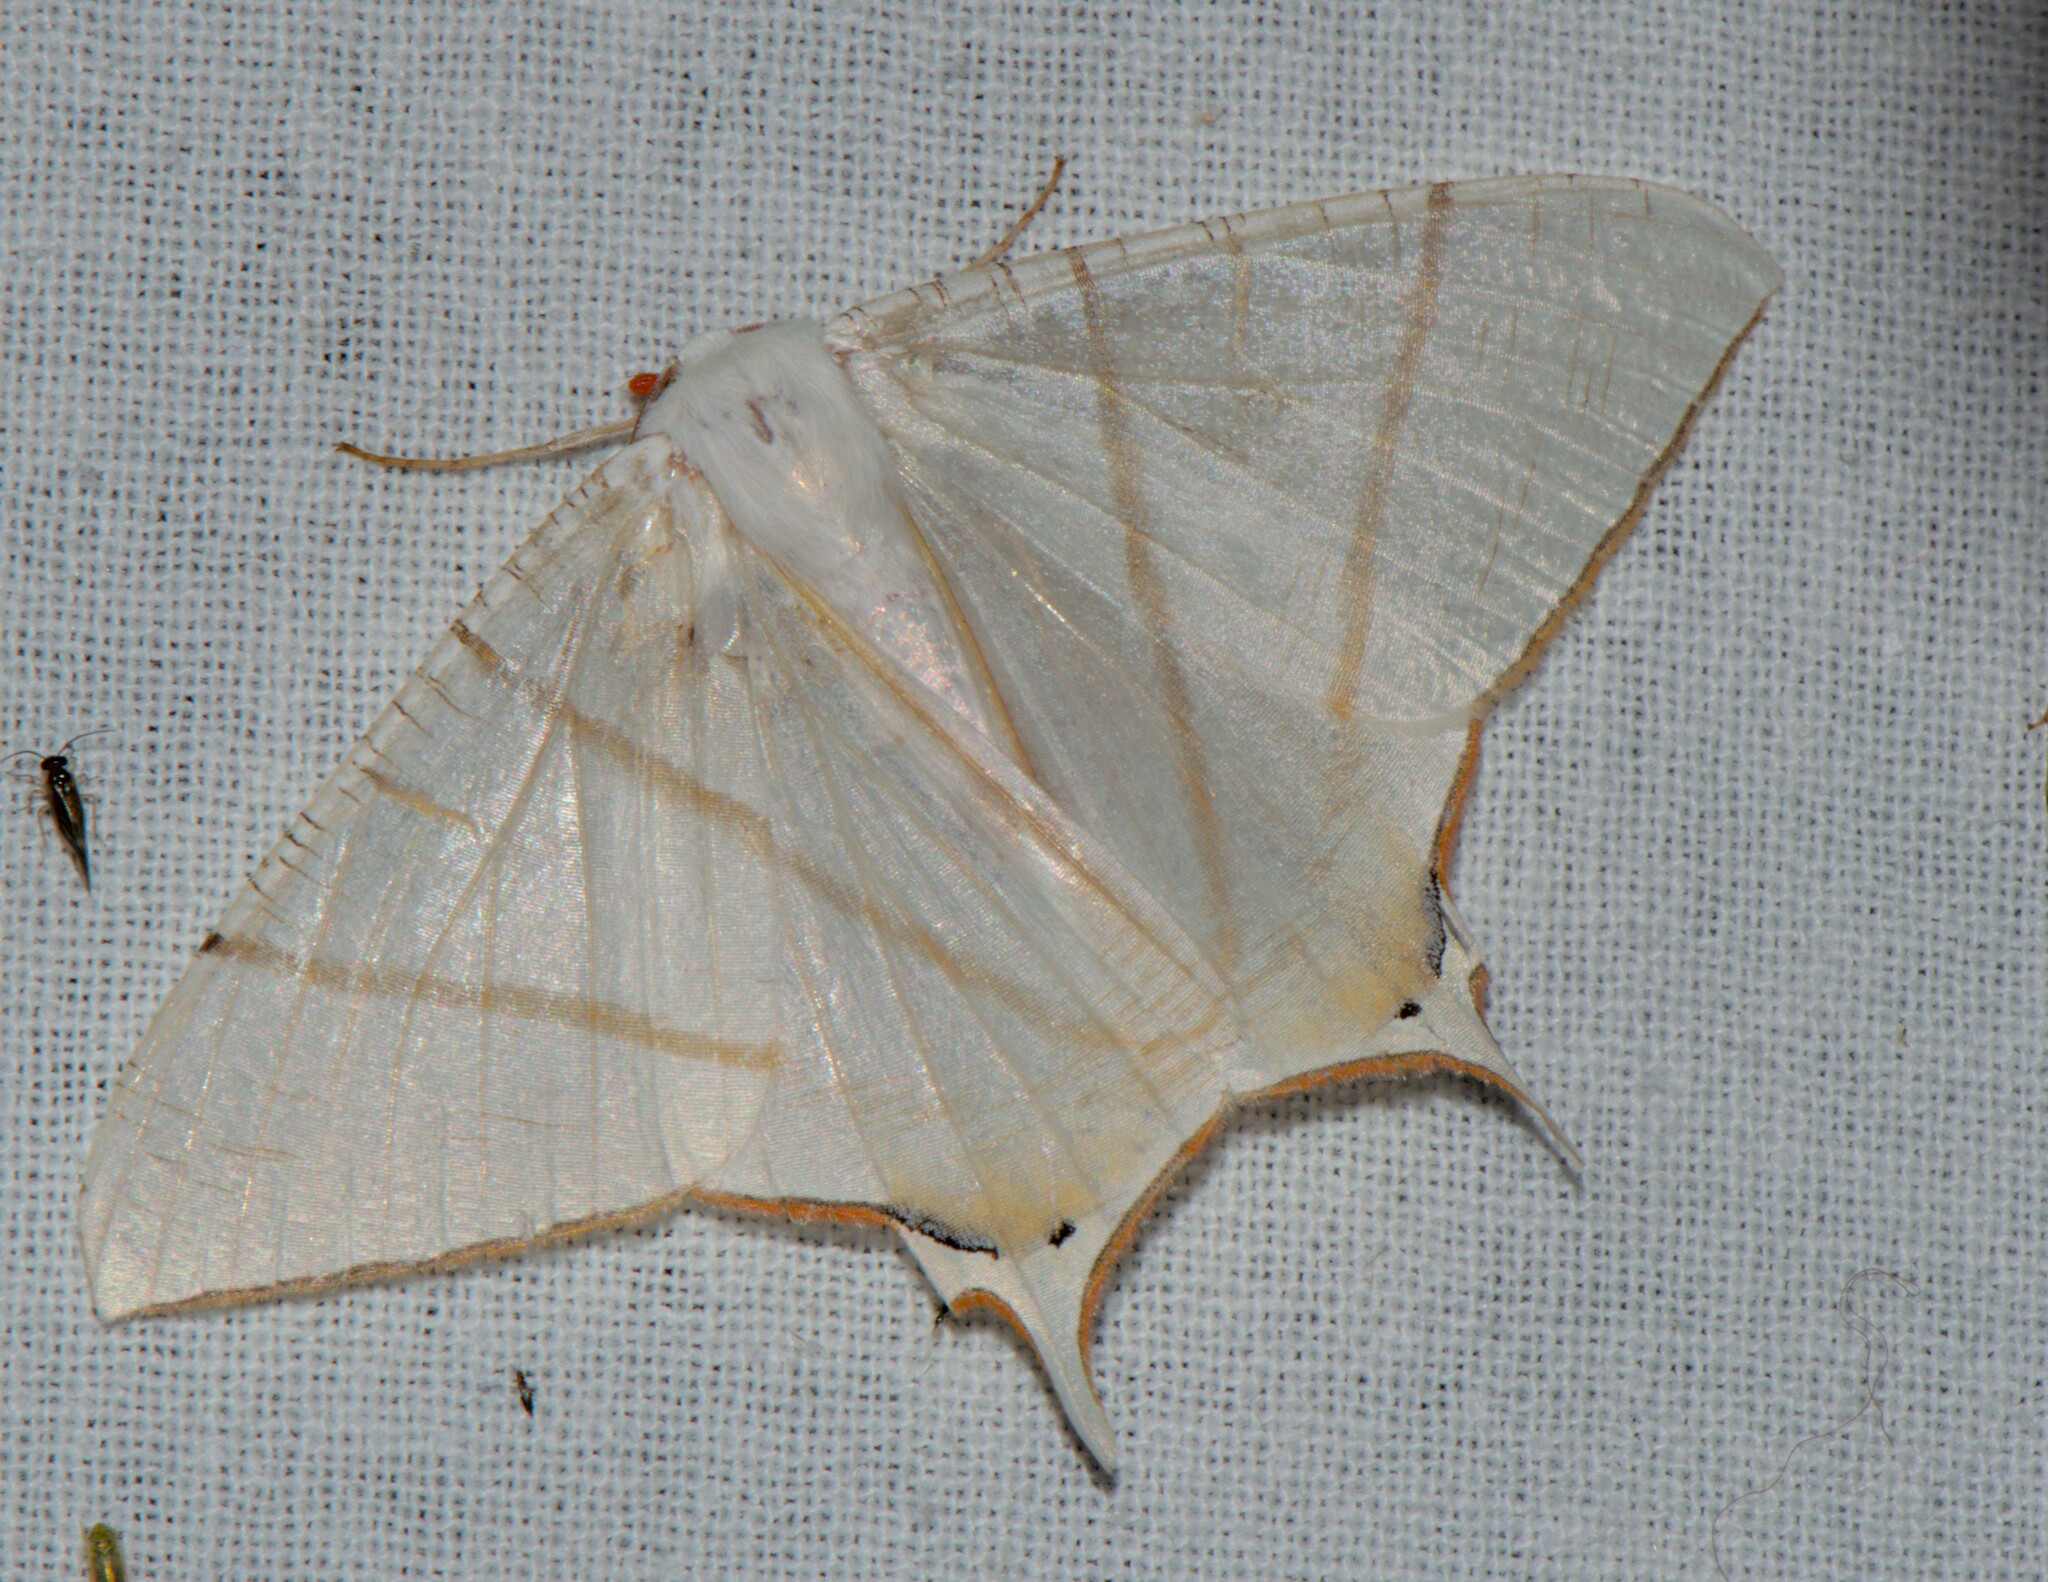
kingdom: Animalia
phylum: Arthropoda
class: Insecta
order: Lepidoptera
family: Geometridae
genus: Ourapteryx
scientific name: Ourapteryx clara
